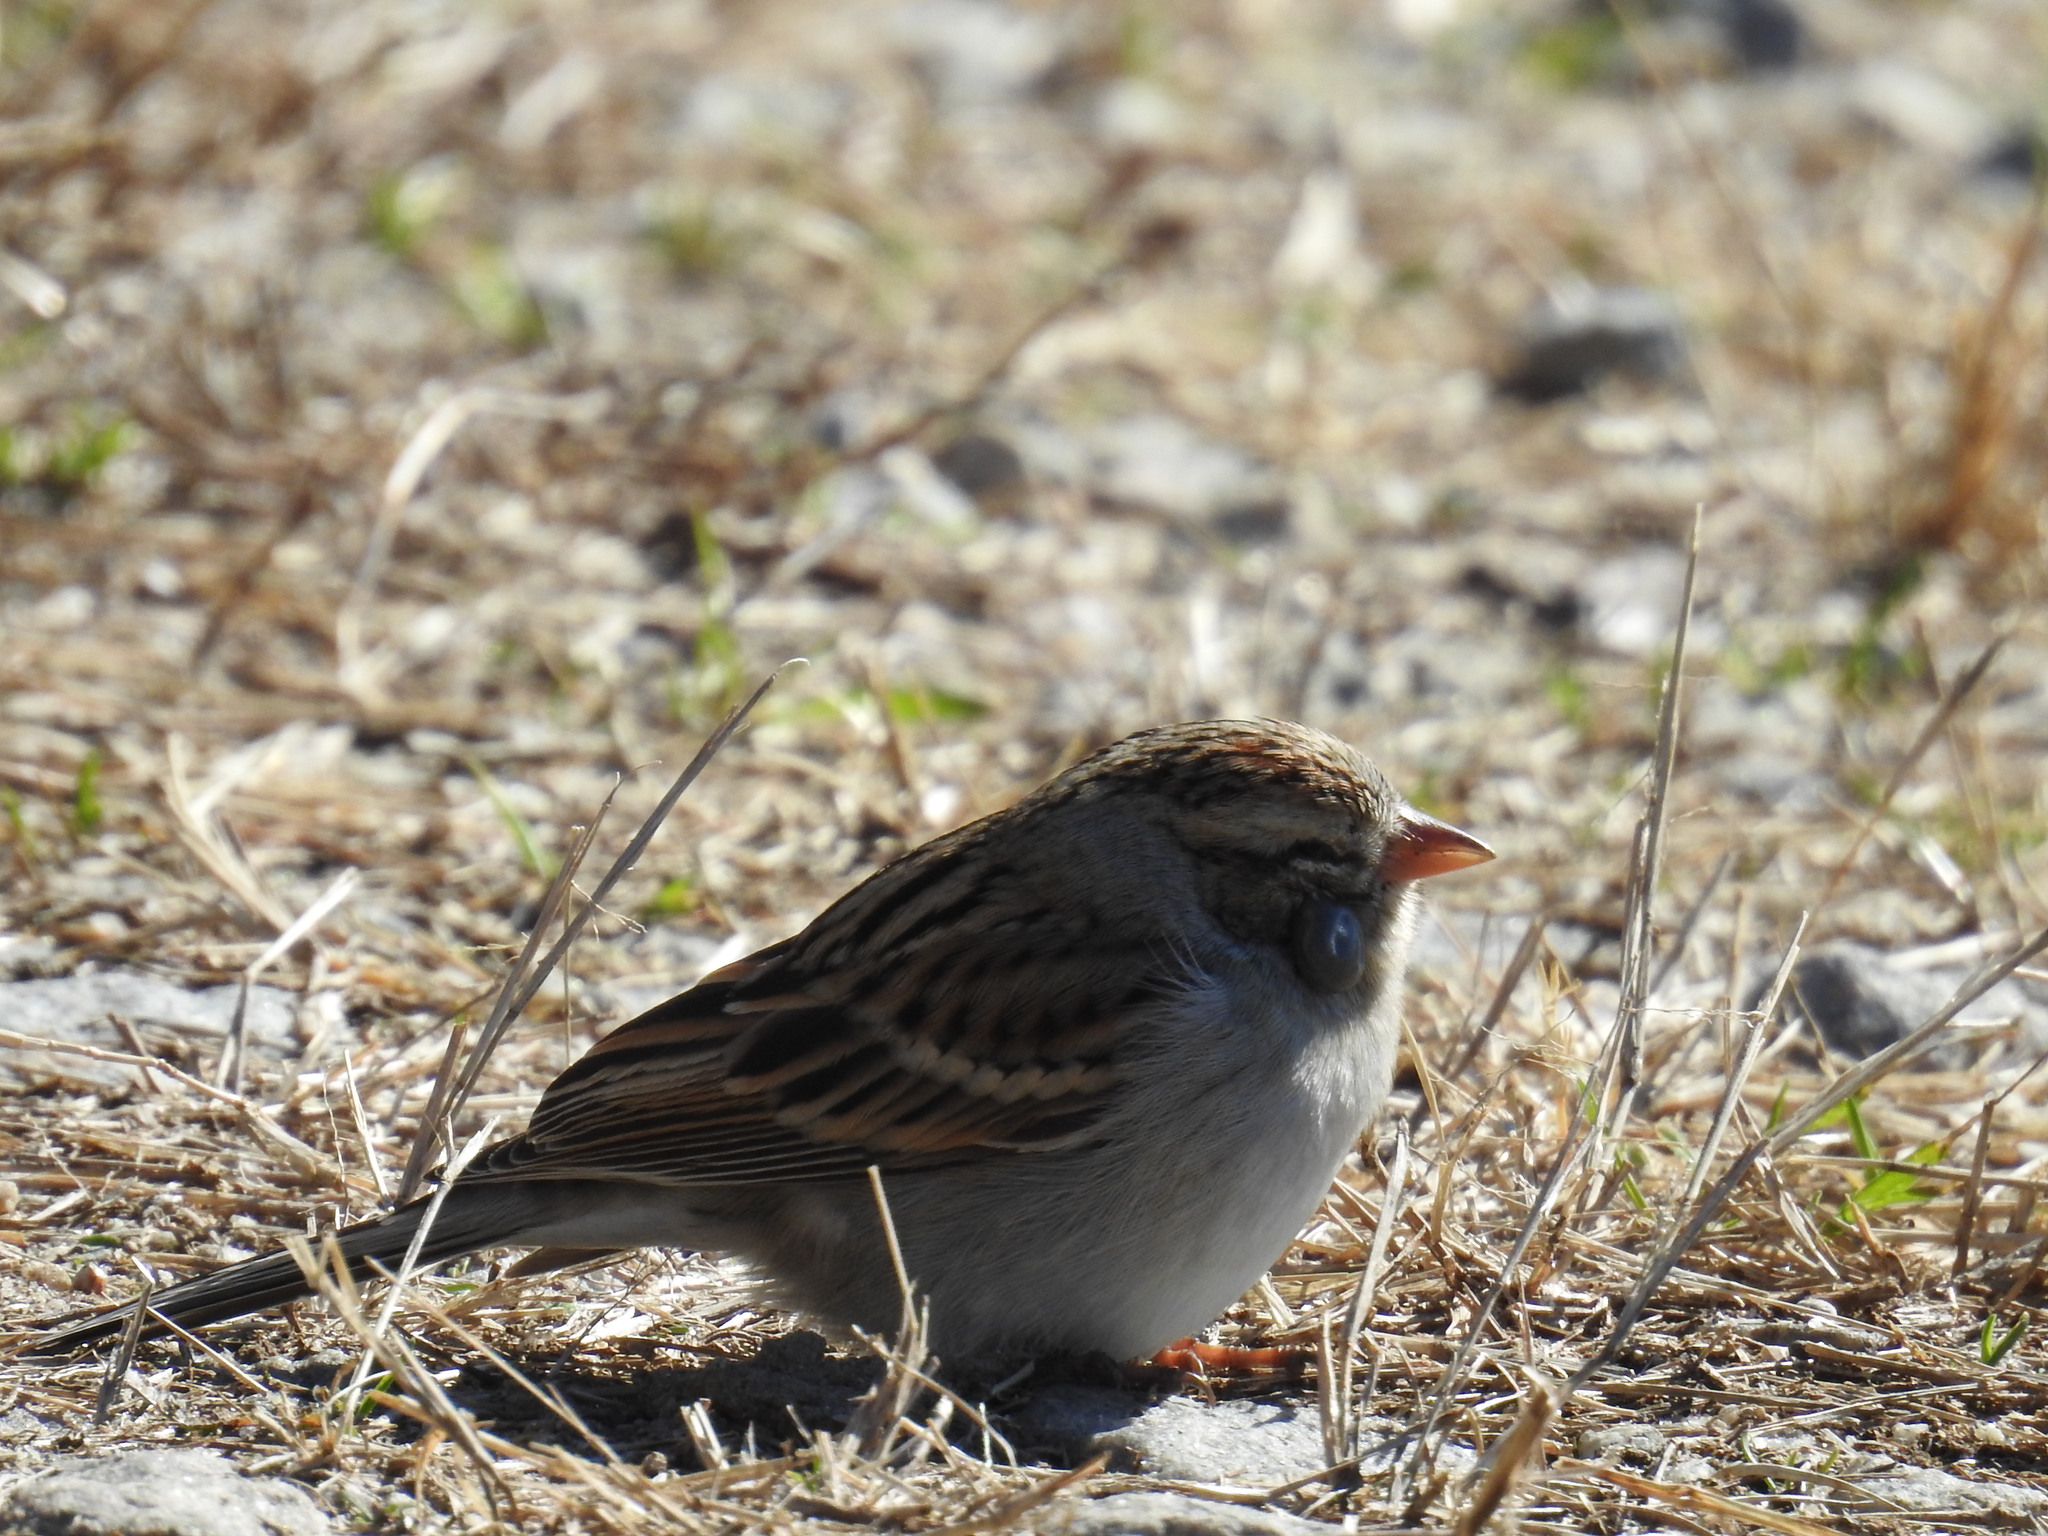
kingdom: Animalia
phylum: Chordata
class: Aves
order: Passeriformes
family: Passerellidae
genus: Spizella
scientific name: Spizella passerina
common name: Chipping sparrow
